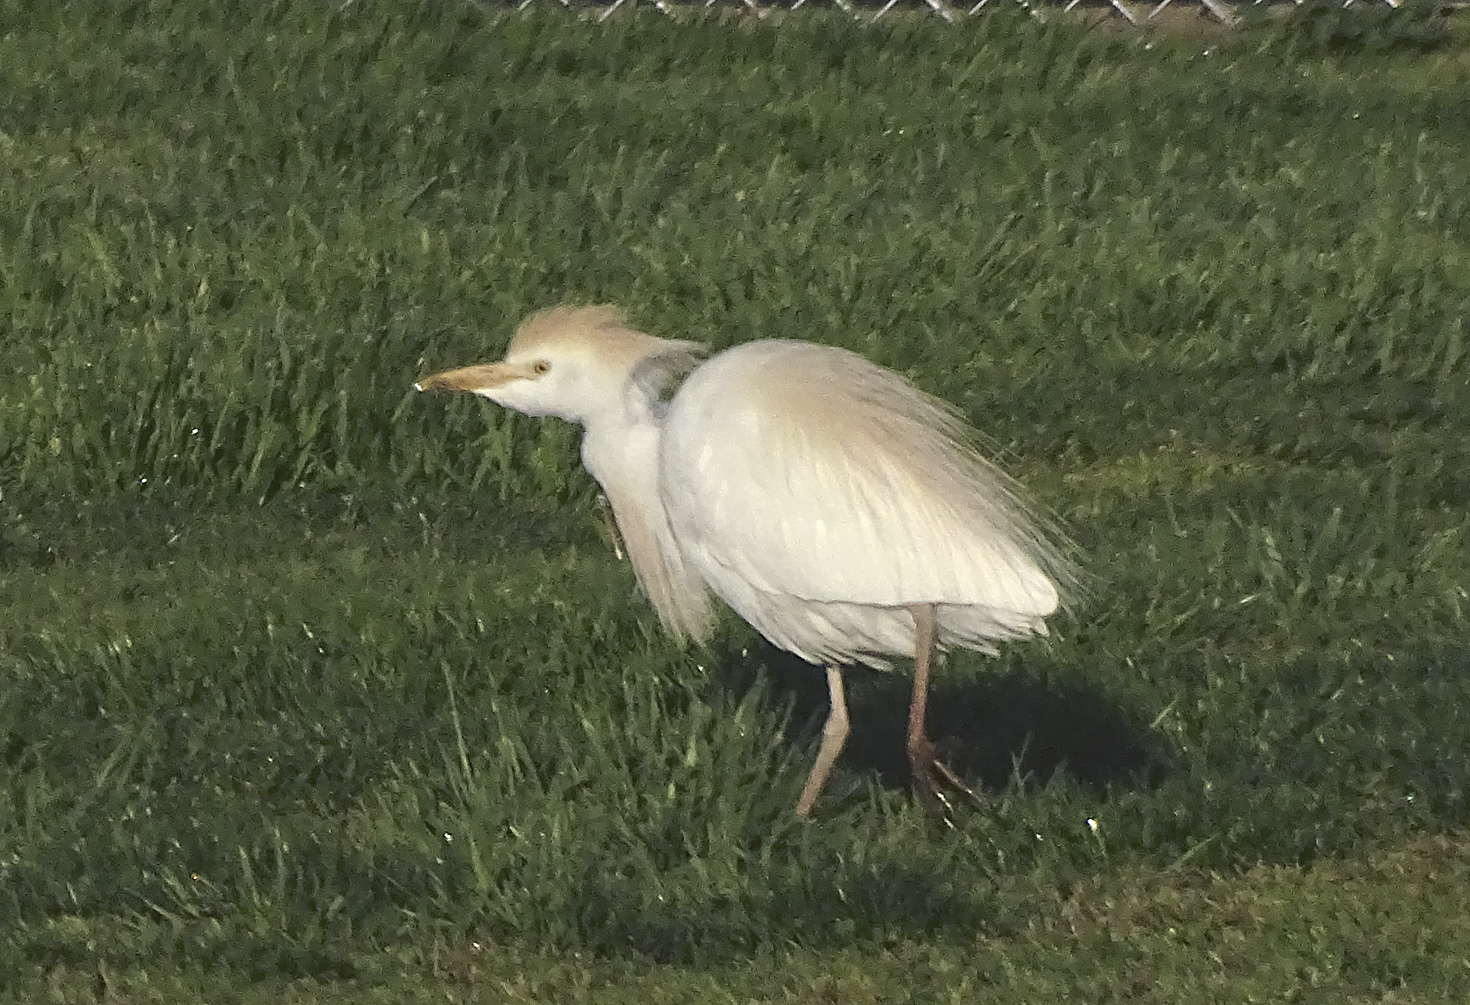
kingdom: Animalia
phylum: Chordata
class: Aves
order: Pelecaniformes
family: Ardeidae
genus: Bubulcus
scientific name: Bubulcus ibis
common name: Cattle egret
